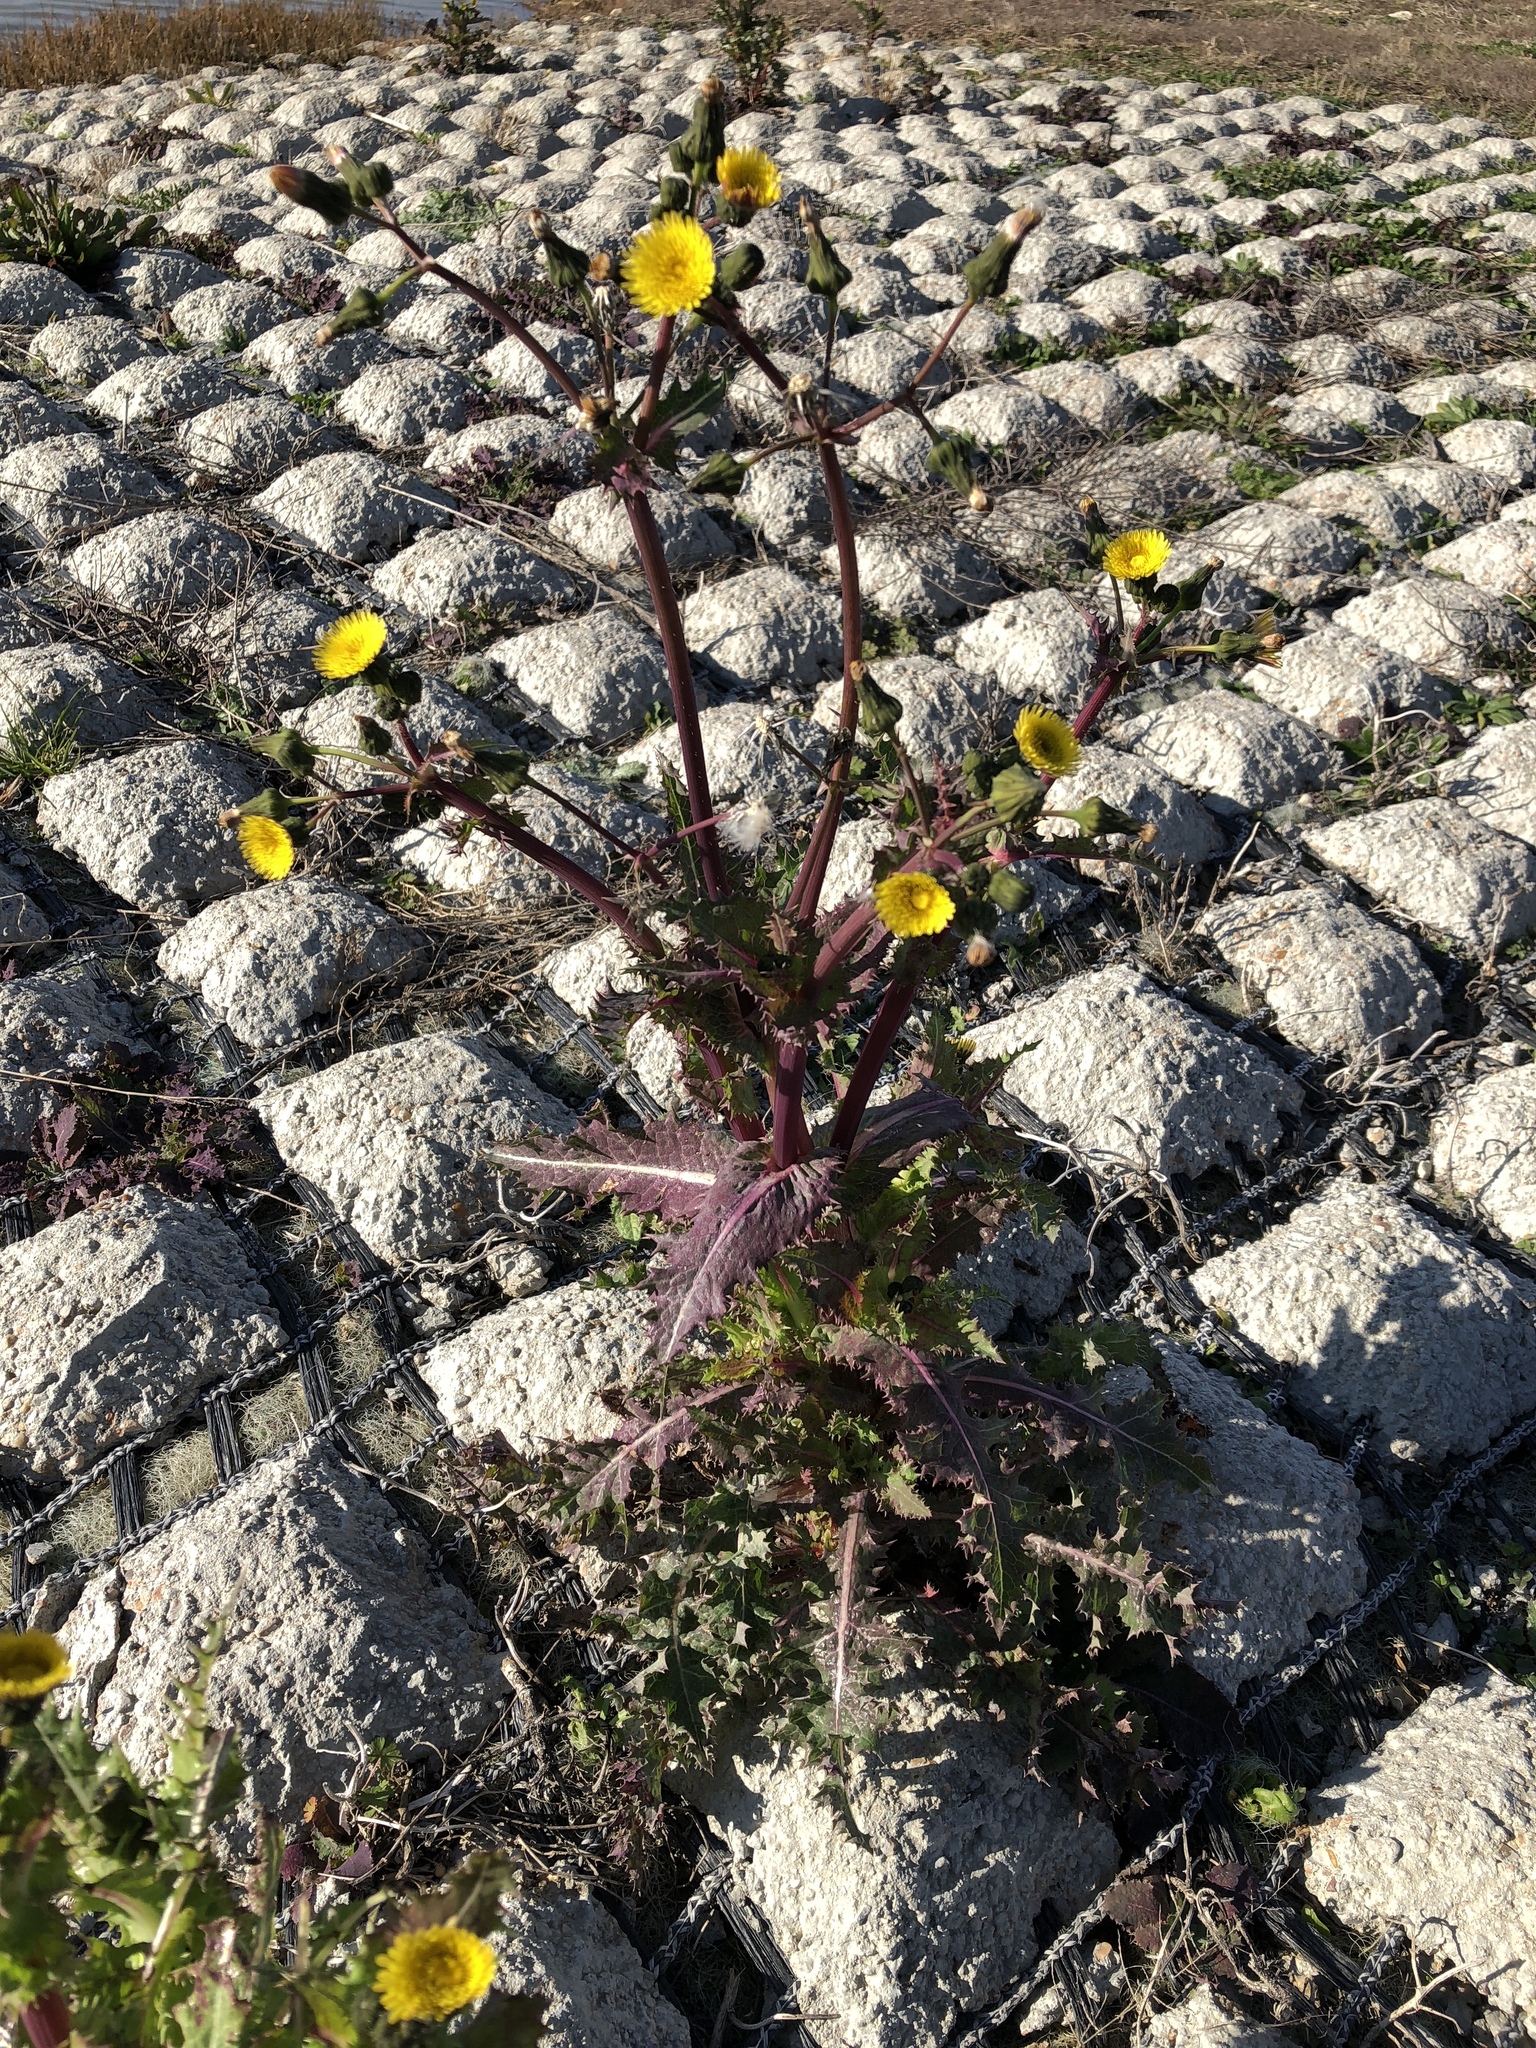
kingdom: Plantae
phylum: Tracheophyta
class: Magnoliopsida
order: Asterales
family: Asteraceae
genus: Sonchus
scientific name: Sonchus asper
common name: Prickly sow-thistle
